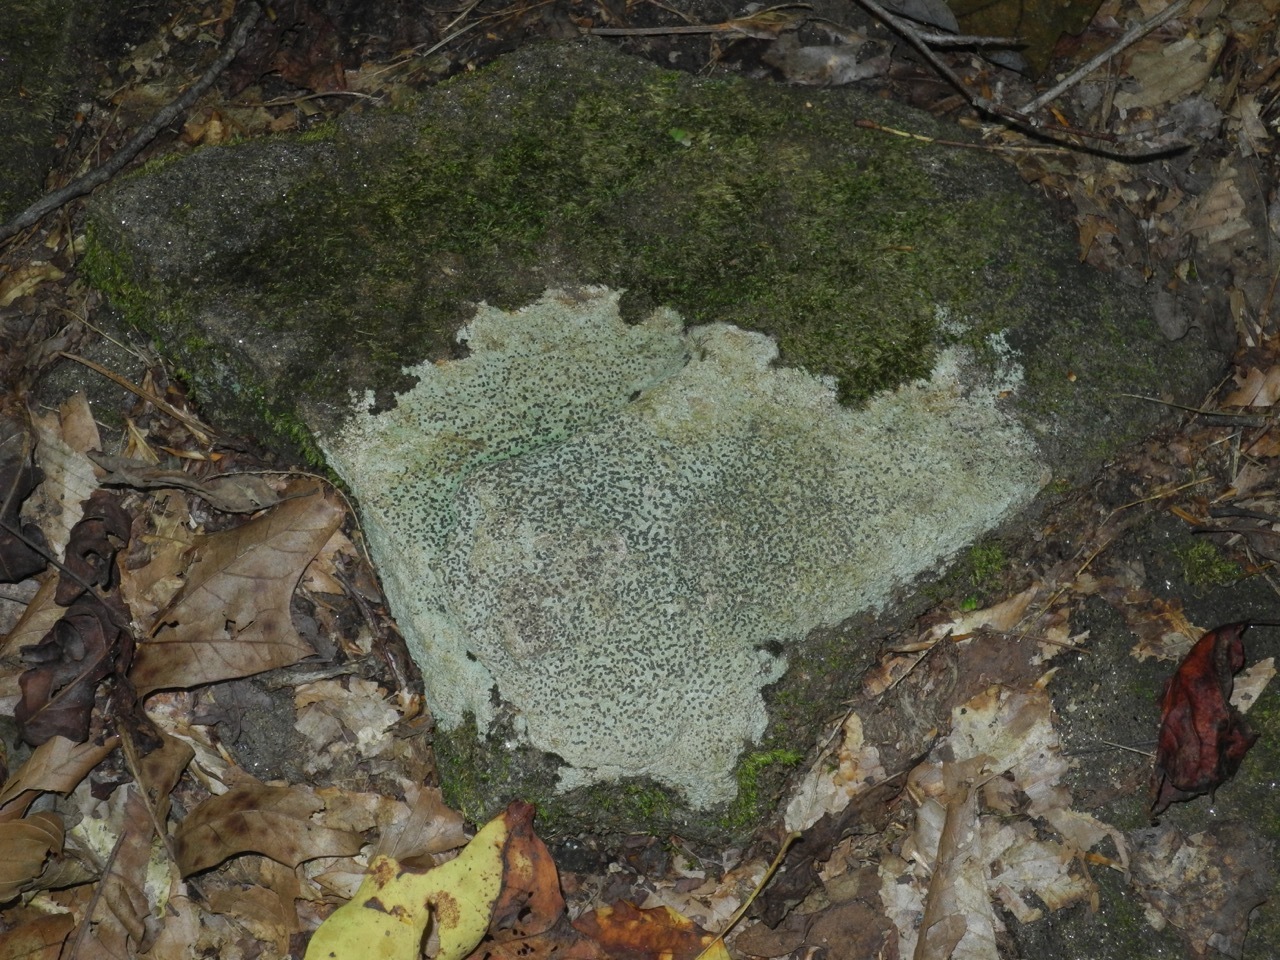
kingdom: Fungi
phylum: Ascomycota
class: Lecanoromycetes
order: Lecideales
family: Lecideaceae
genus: Porpidia
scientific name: Porpidia albocaerulescens
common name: Smokey-eyed boulder lichen
